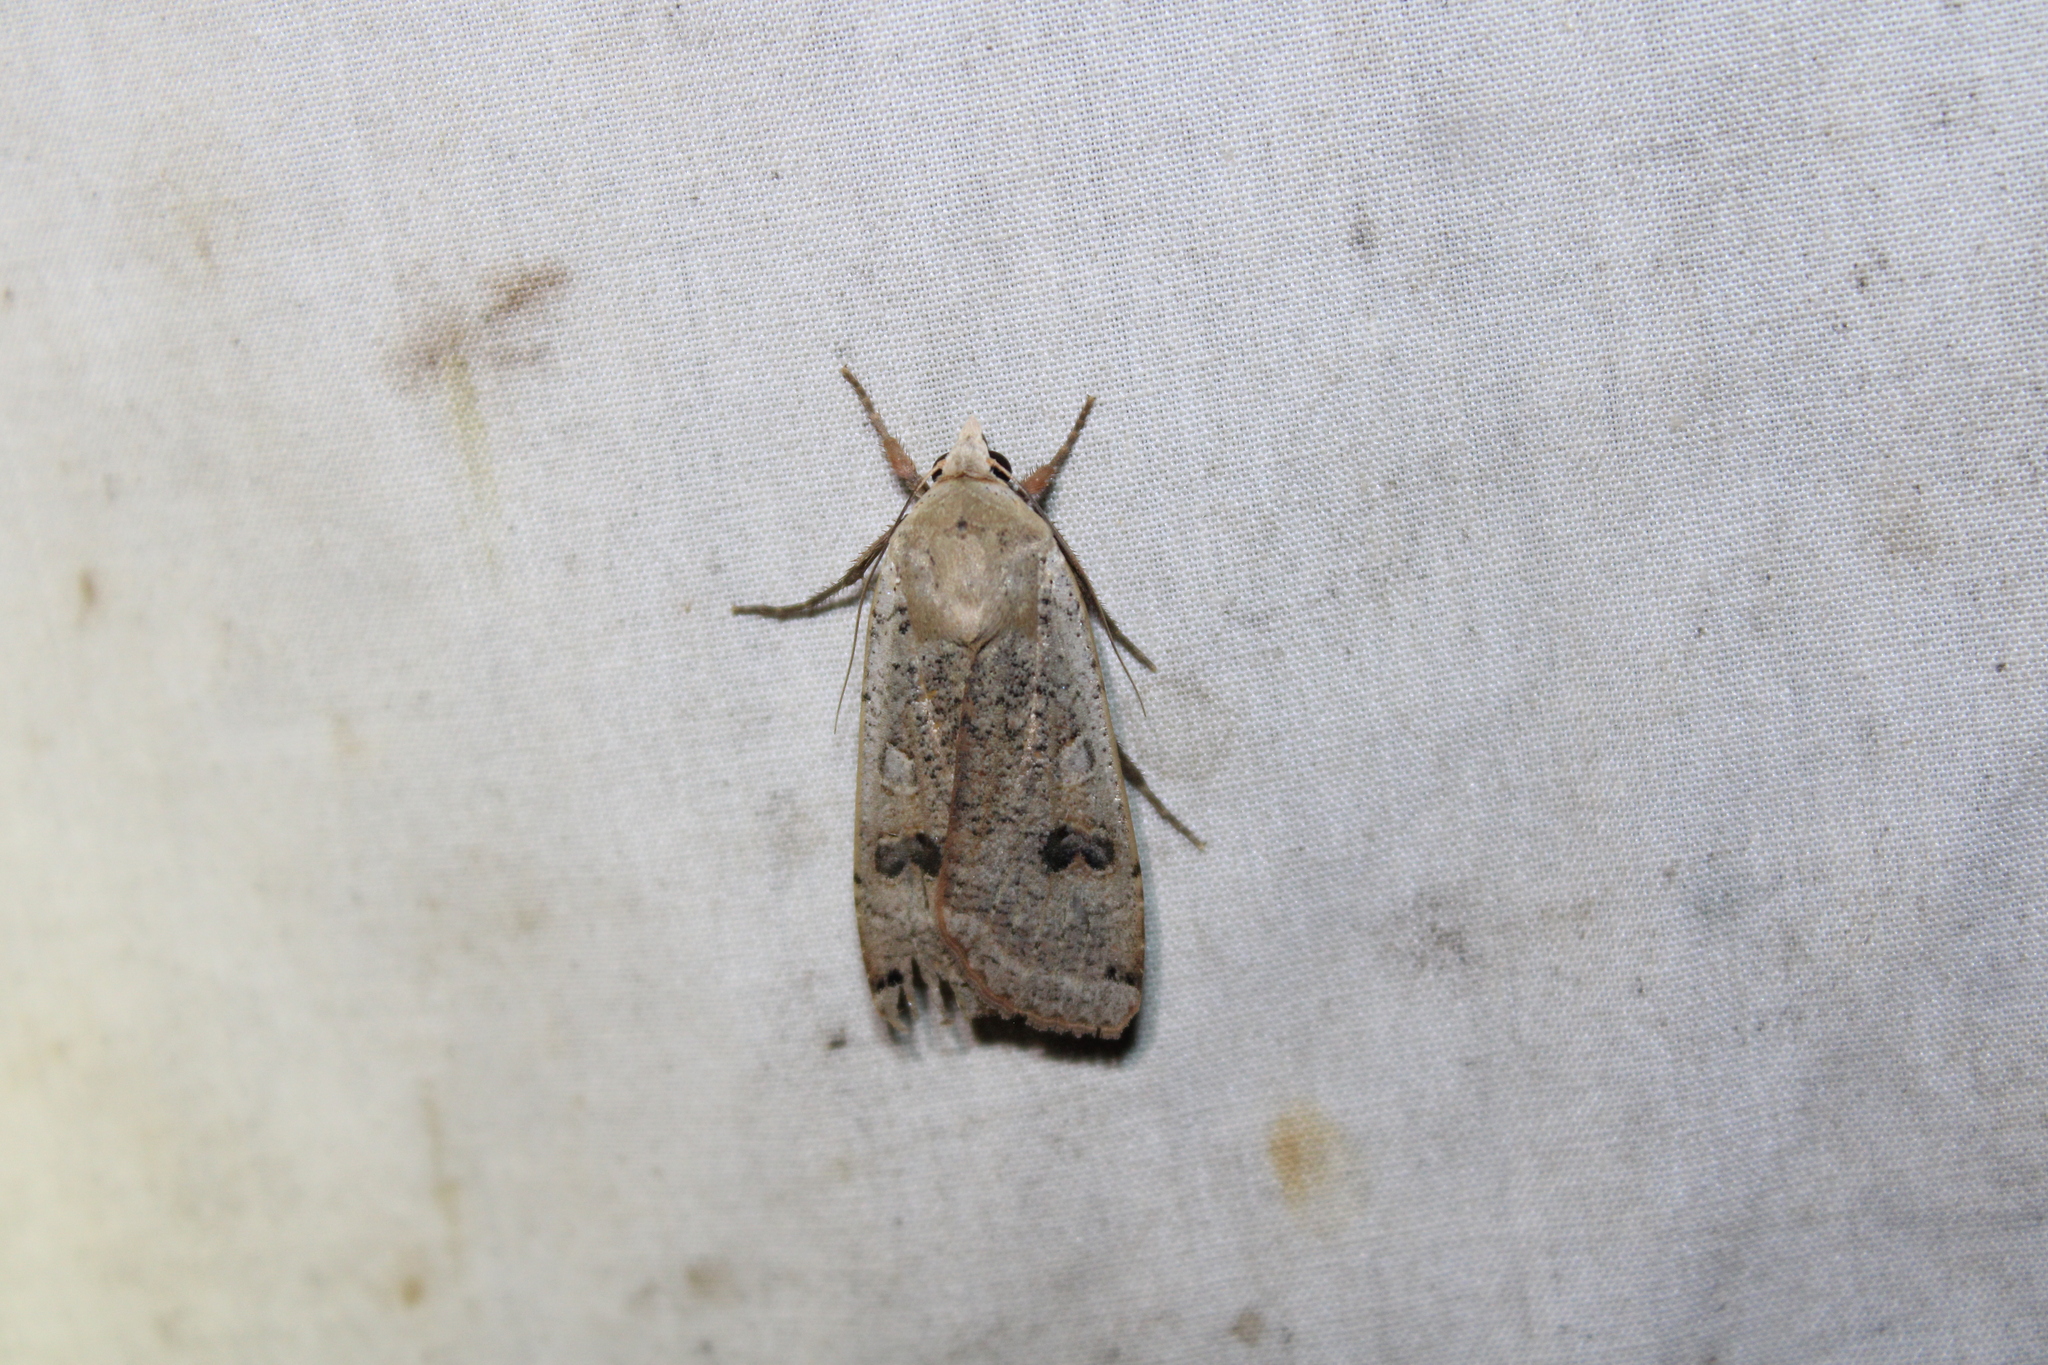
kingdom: Animalia
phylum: Arthropoda
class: Insecta
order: Lepidoptera
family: Noctuidae
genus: Noctua
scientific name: Noctua pronuba
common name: Large yellow underwing
